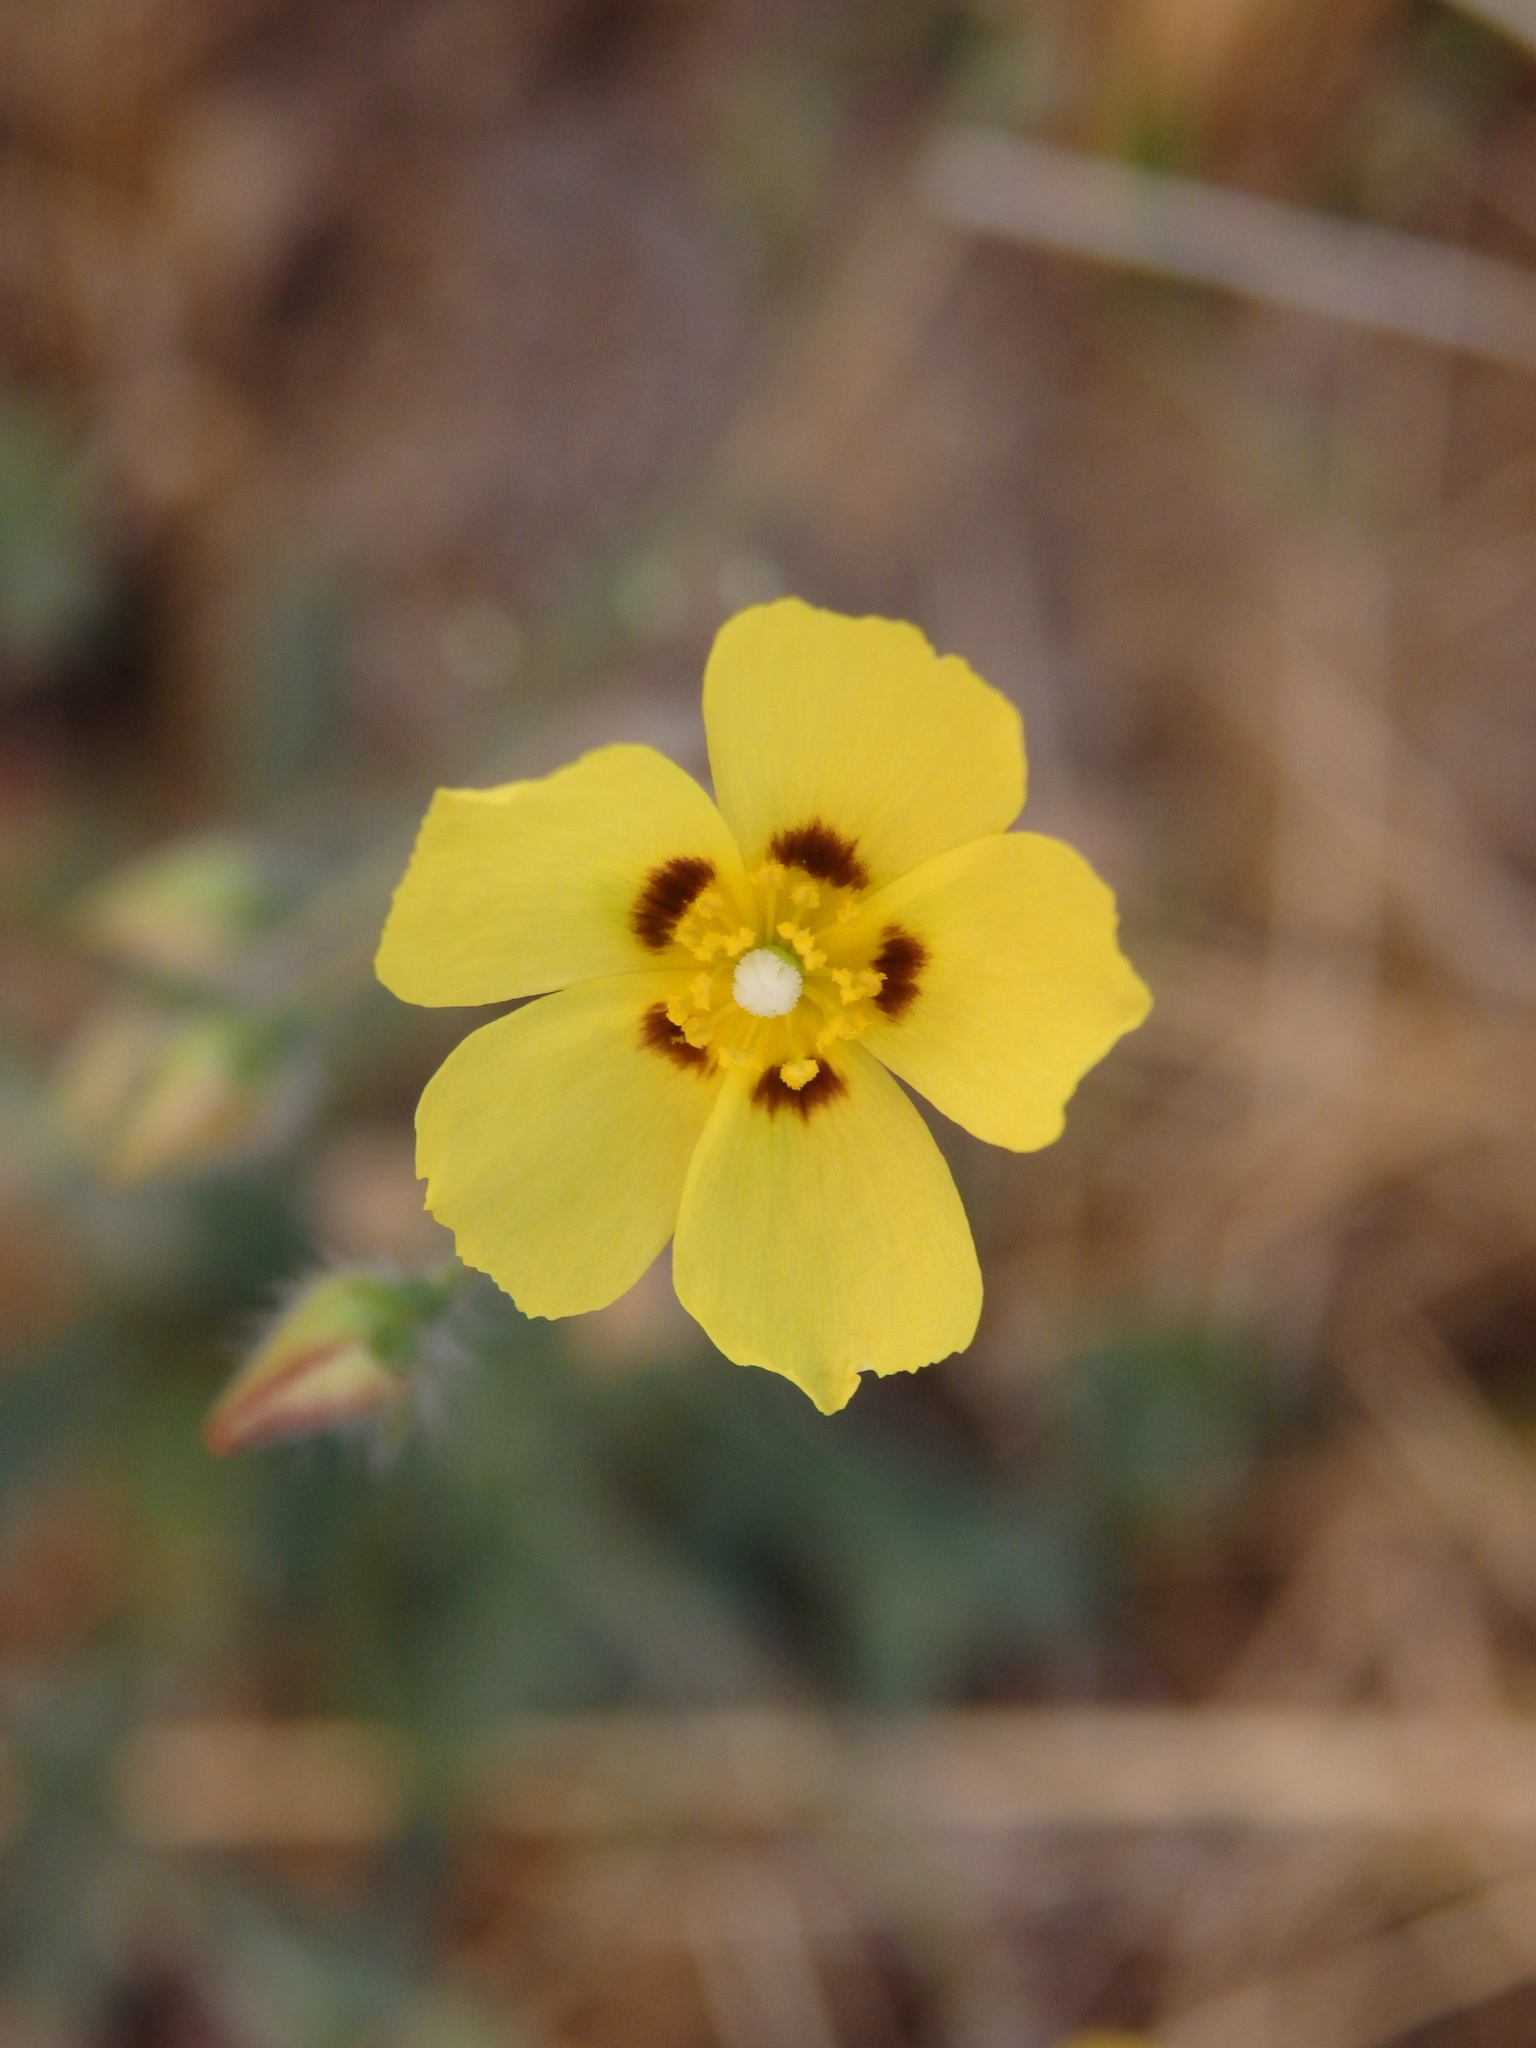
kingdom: Plantae
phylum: Tracheophyta
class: Magnoliopsida
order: Malvales
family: Cistaceae
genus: Tuberaria
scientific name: Tuberaria guttata
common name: Spotted rock-rose
